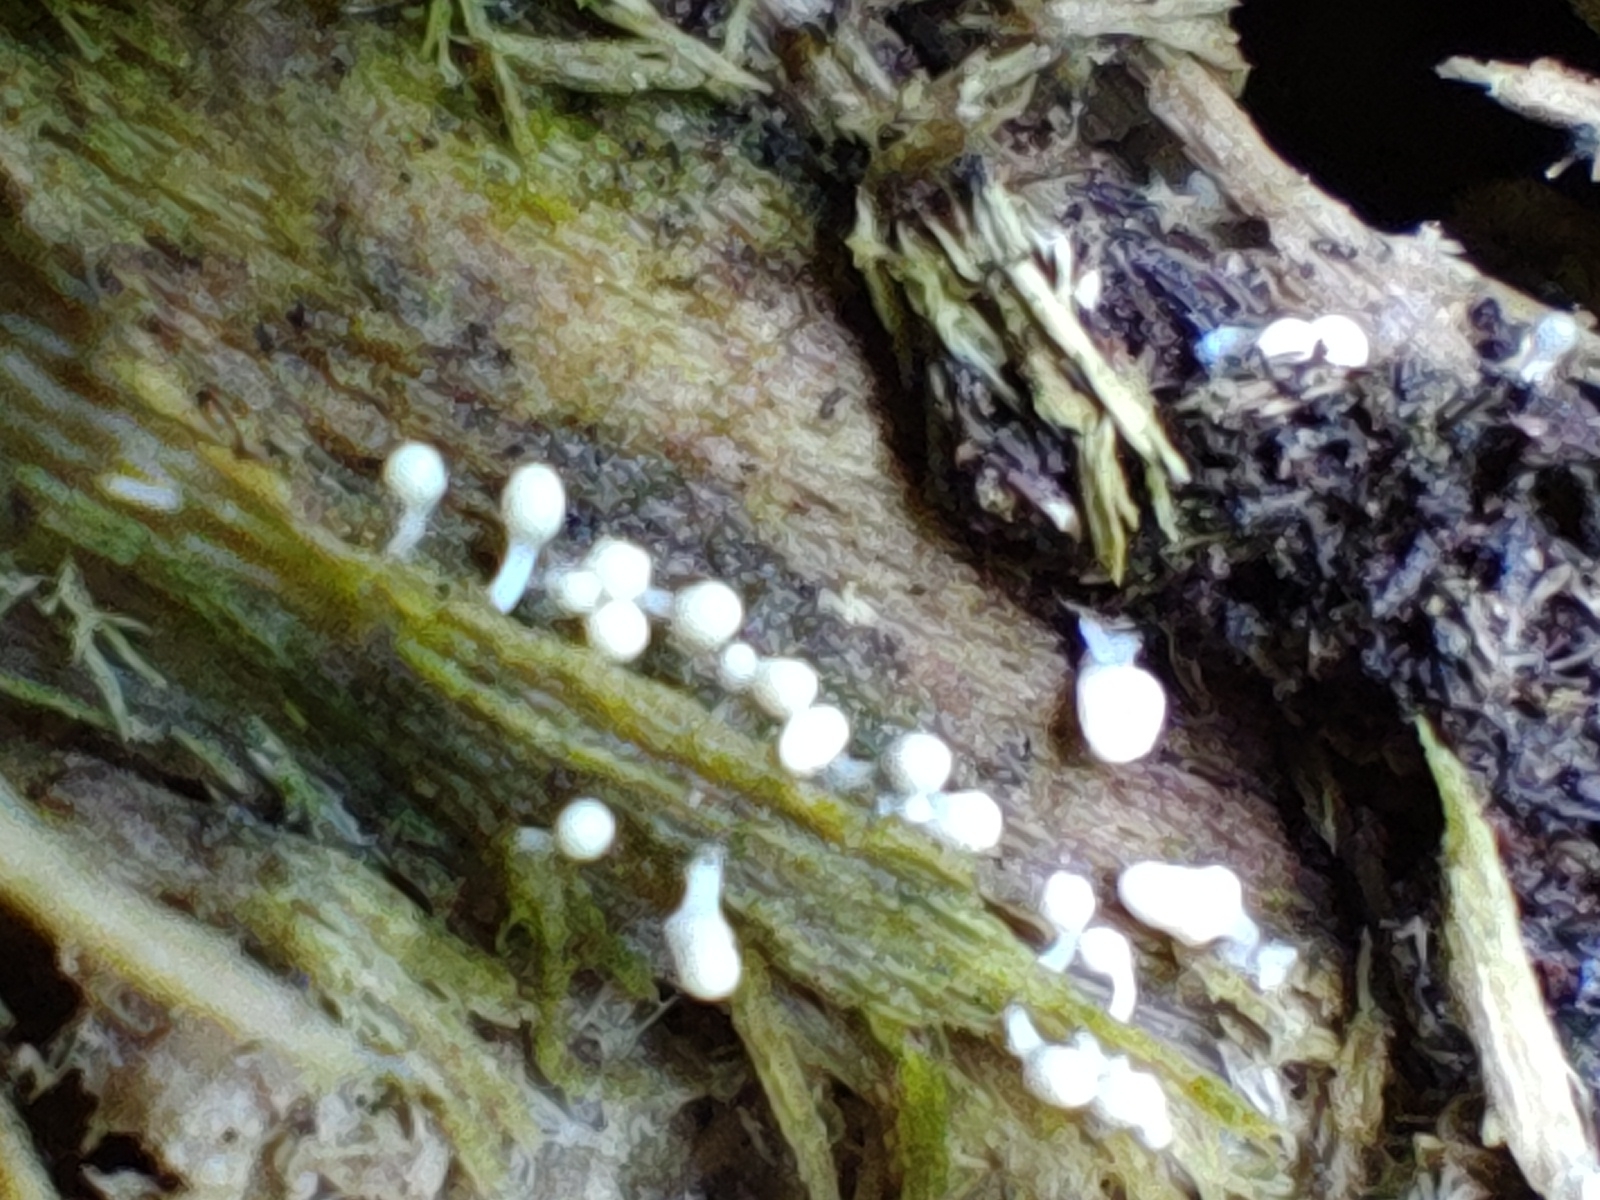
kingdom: Protozoa
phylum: Mycetozoa
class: Myxomycetes
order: Trichiales
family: Arcyriaceae
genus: Arcyria
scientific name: Arcyria cinerea
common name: White carnival candy slime mold
